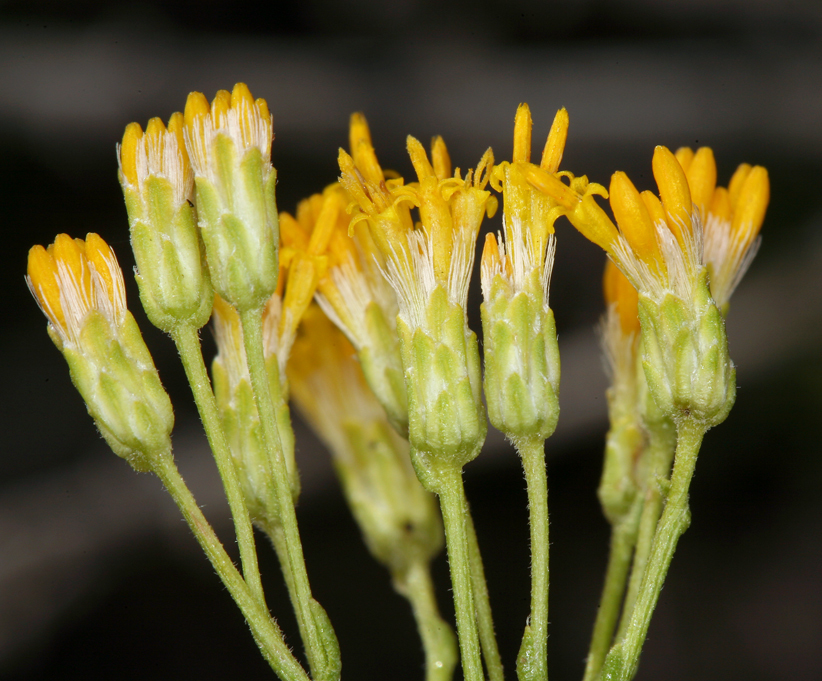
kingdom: Plantae
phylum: Tracheophyta
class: Magnoliopsida
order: Asterales
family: Asteraceae
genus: Ericameria
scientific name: Ericameria cooperi
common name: Cooper's goldenbush
